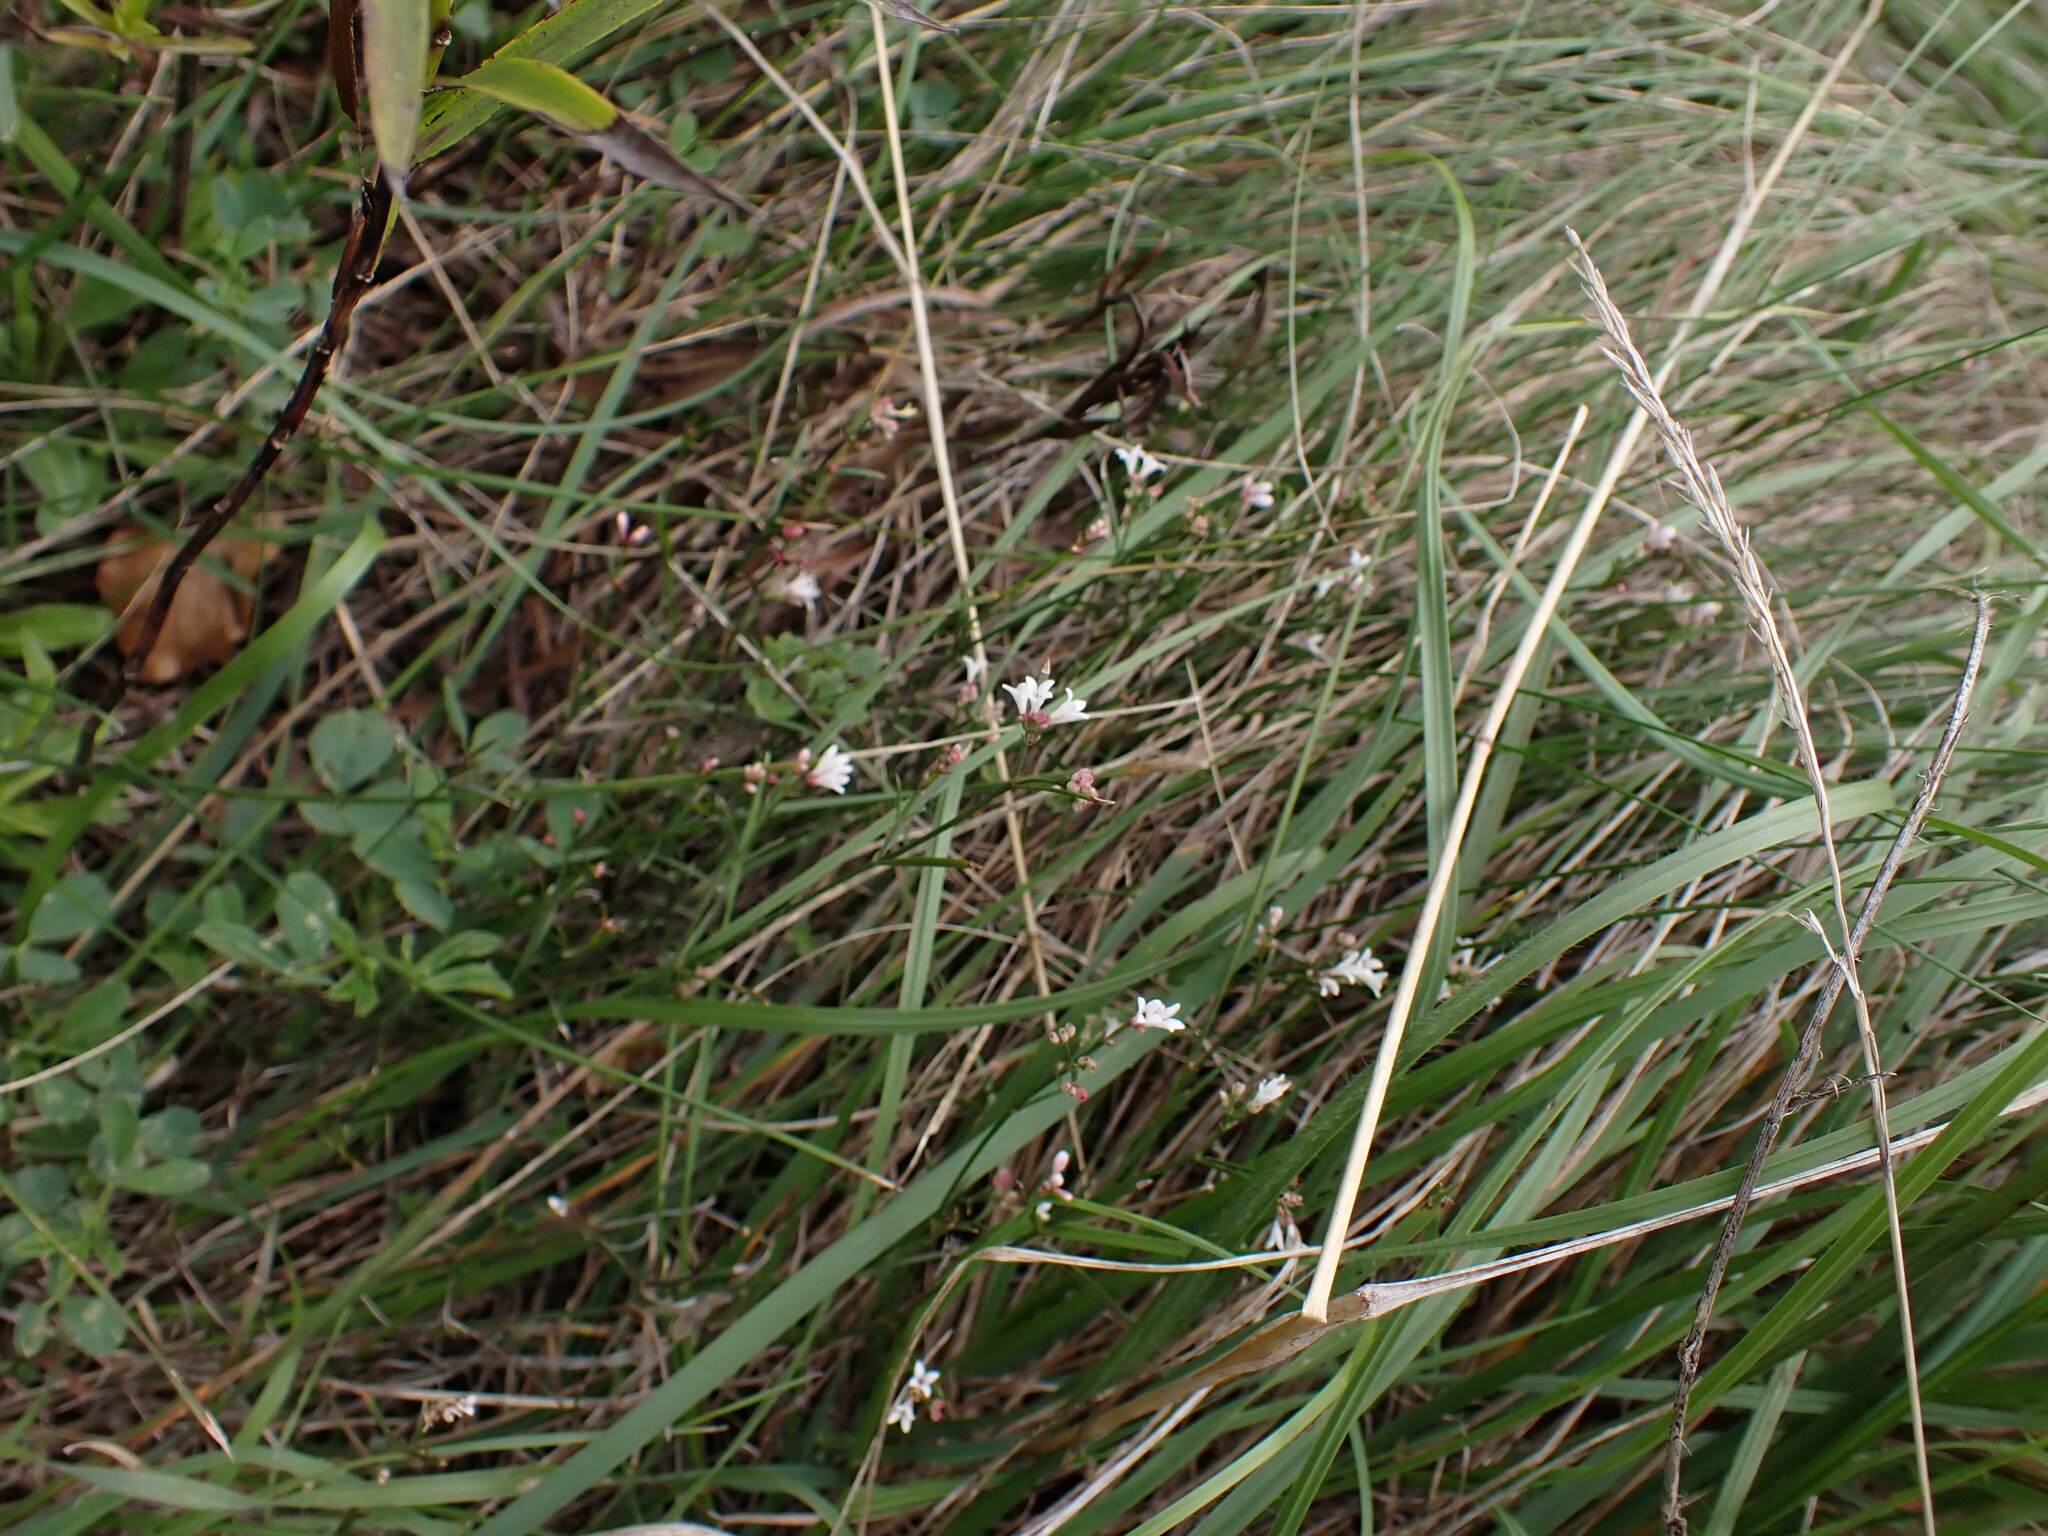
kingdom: Plantae
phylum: Tracheophyta
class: Magnoliopsida
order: Gentianales
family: Rubiaceae
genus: Cynanchica
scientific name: Cynanchica pyrenaica
